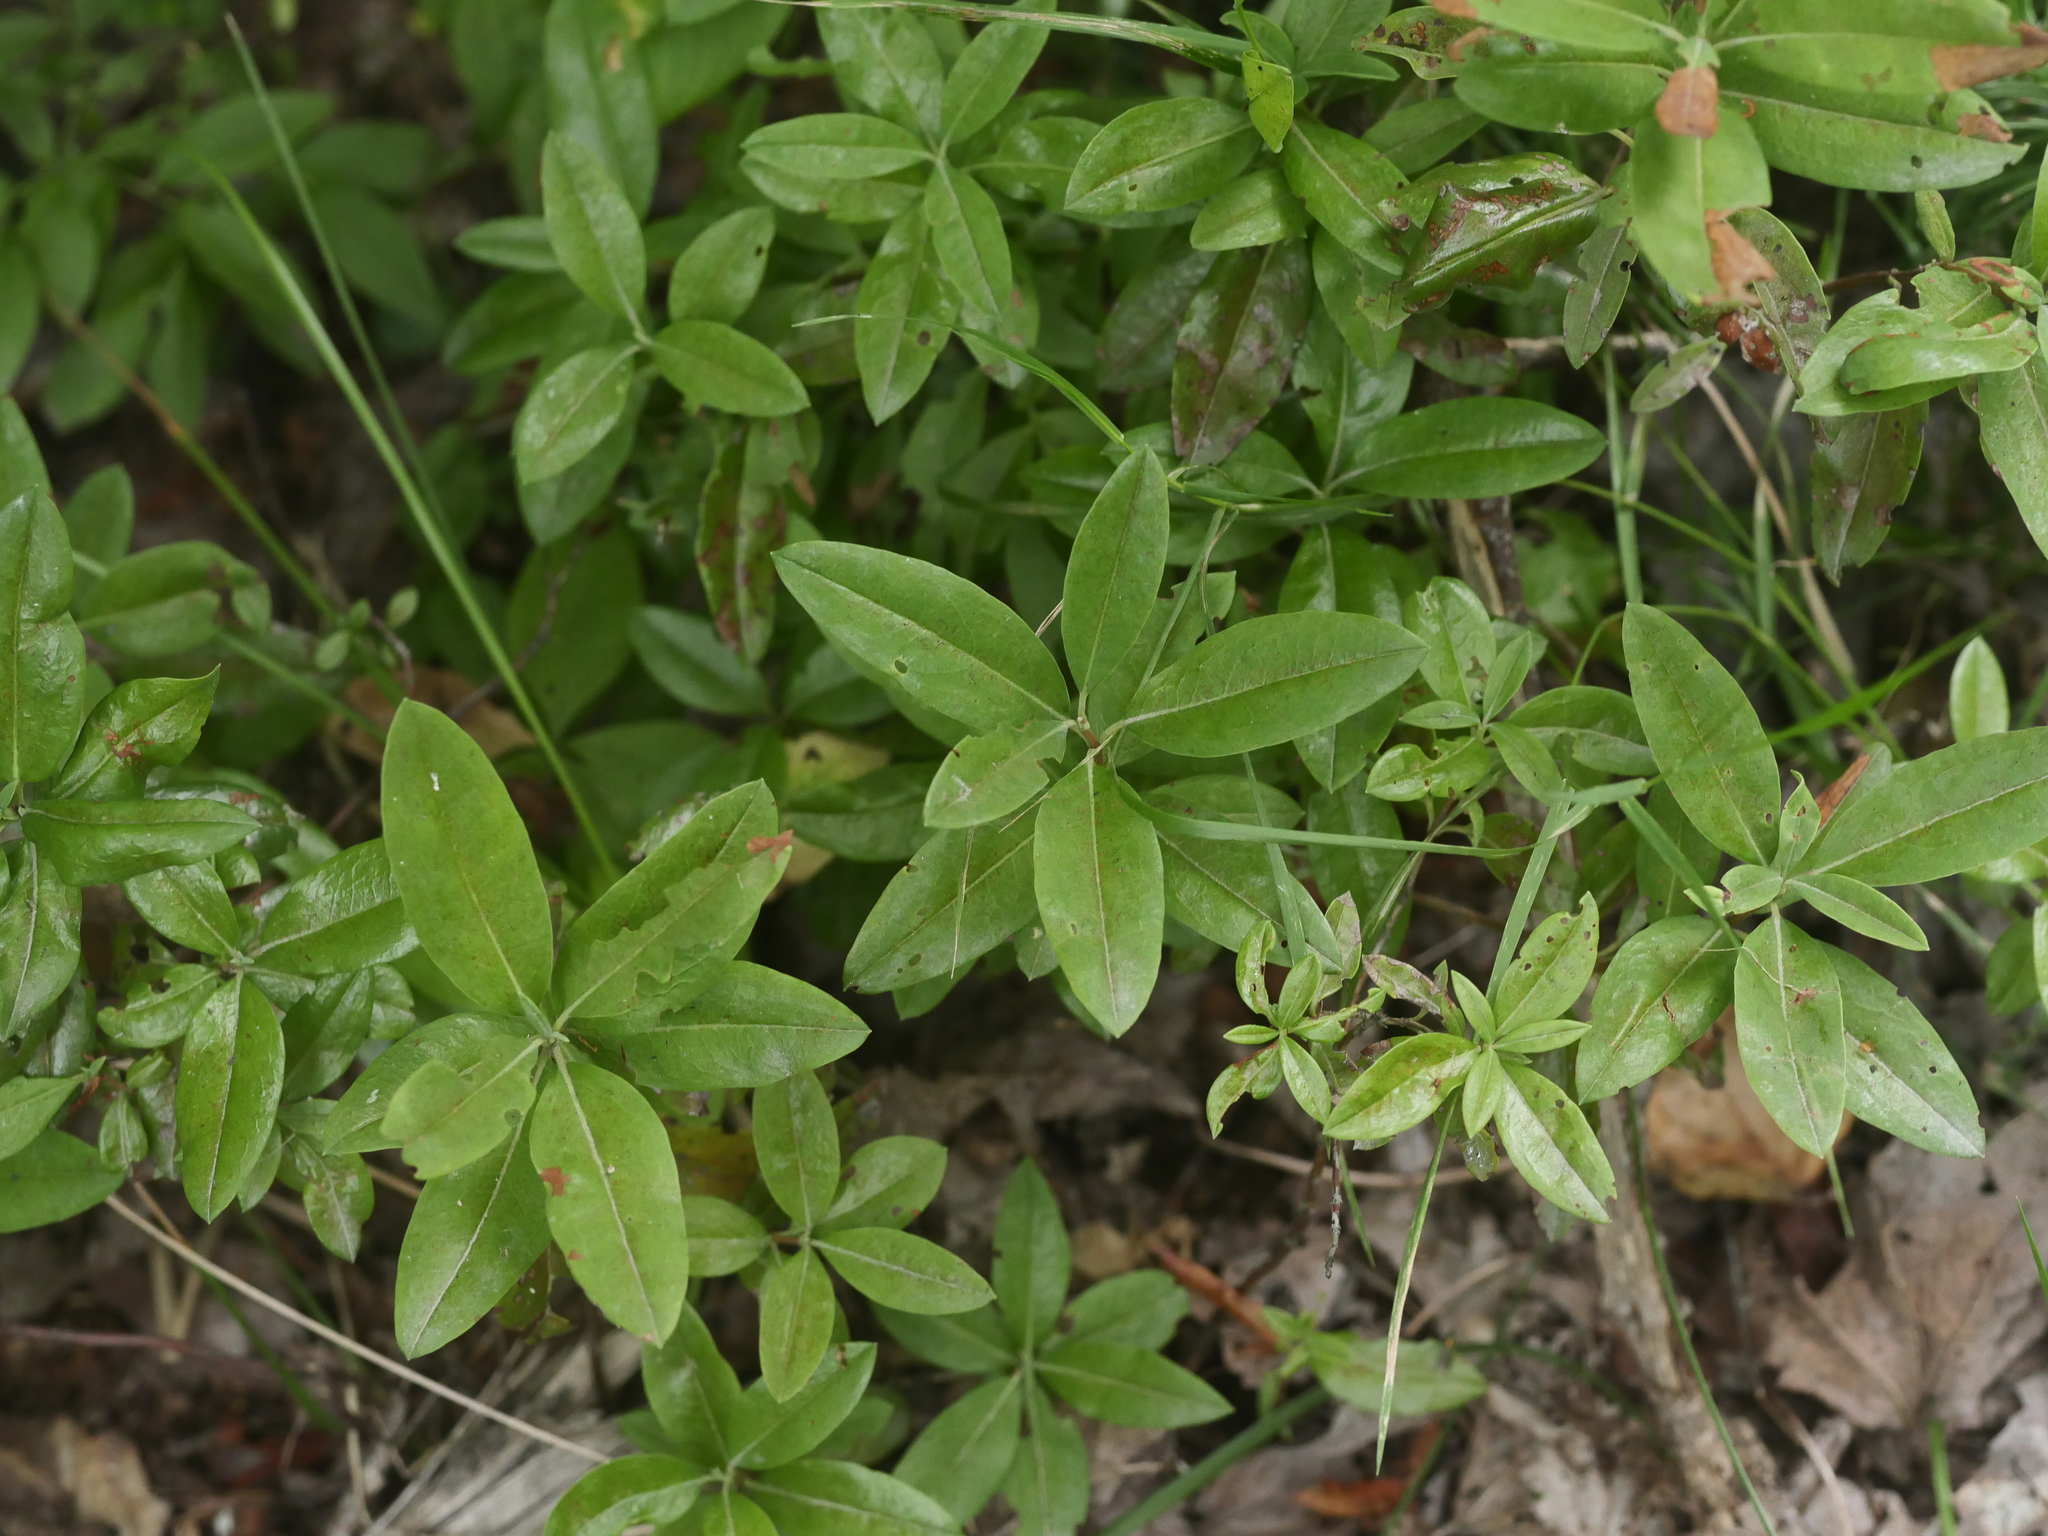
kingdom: Plantae
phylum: Tracheophyta
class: Magnoliopsida
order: Ericales
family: Ericaceae
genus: Kalmia
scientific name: Kalmia angustifolia
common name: Sheep-laurel
